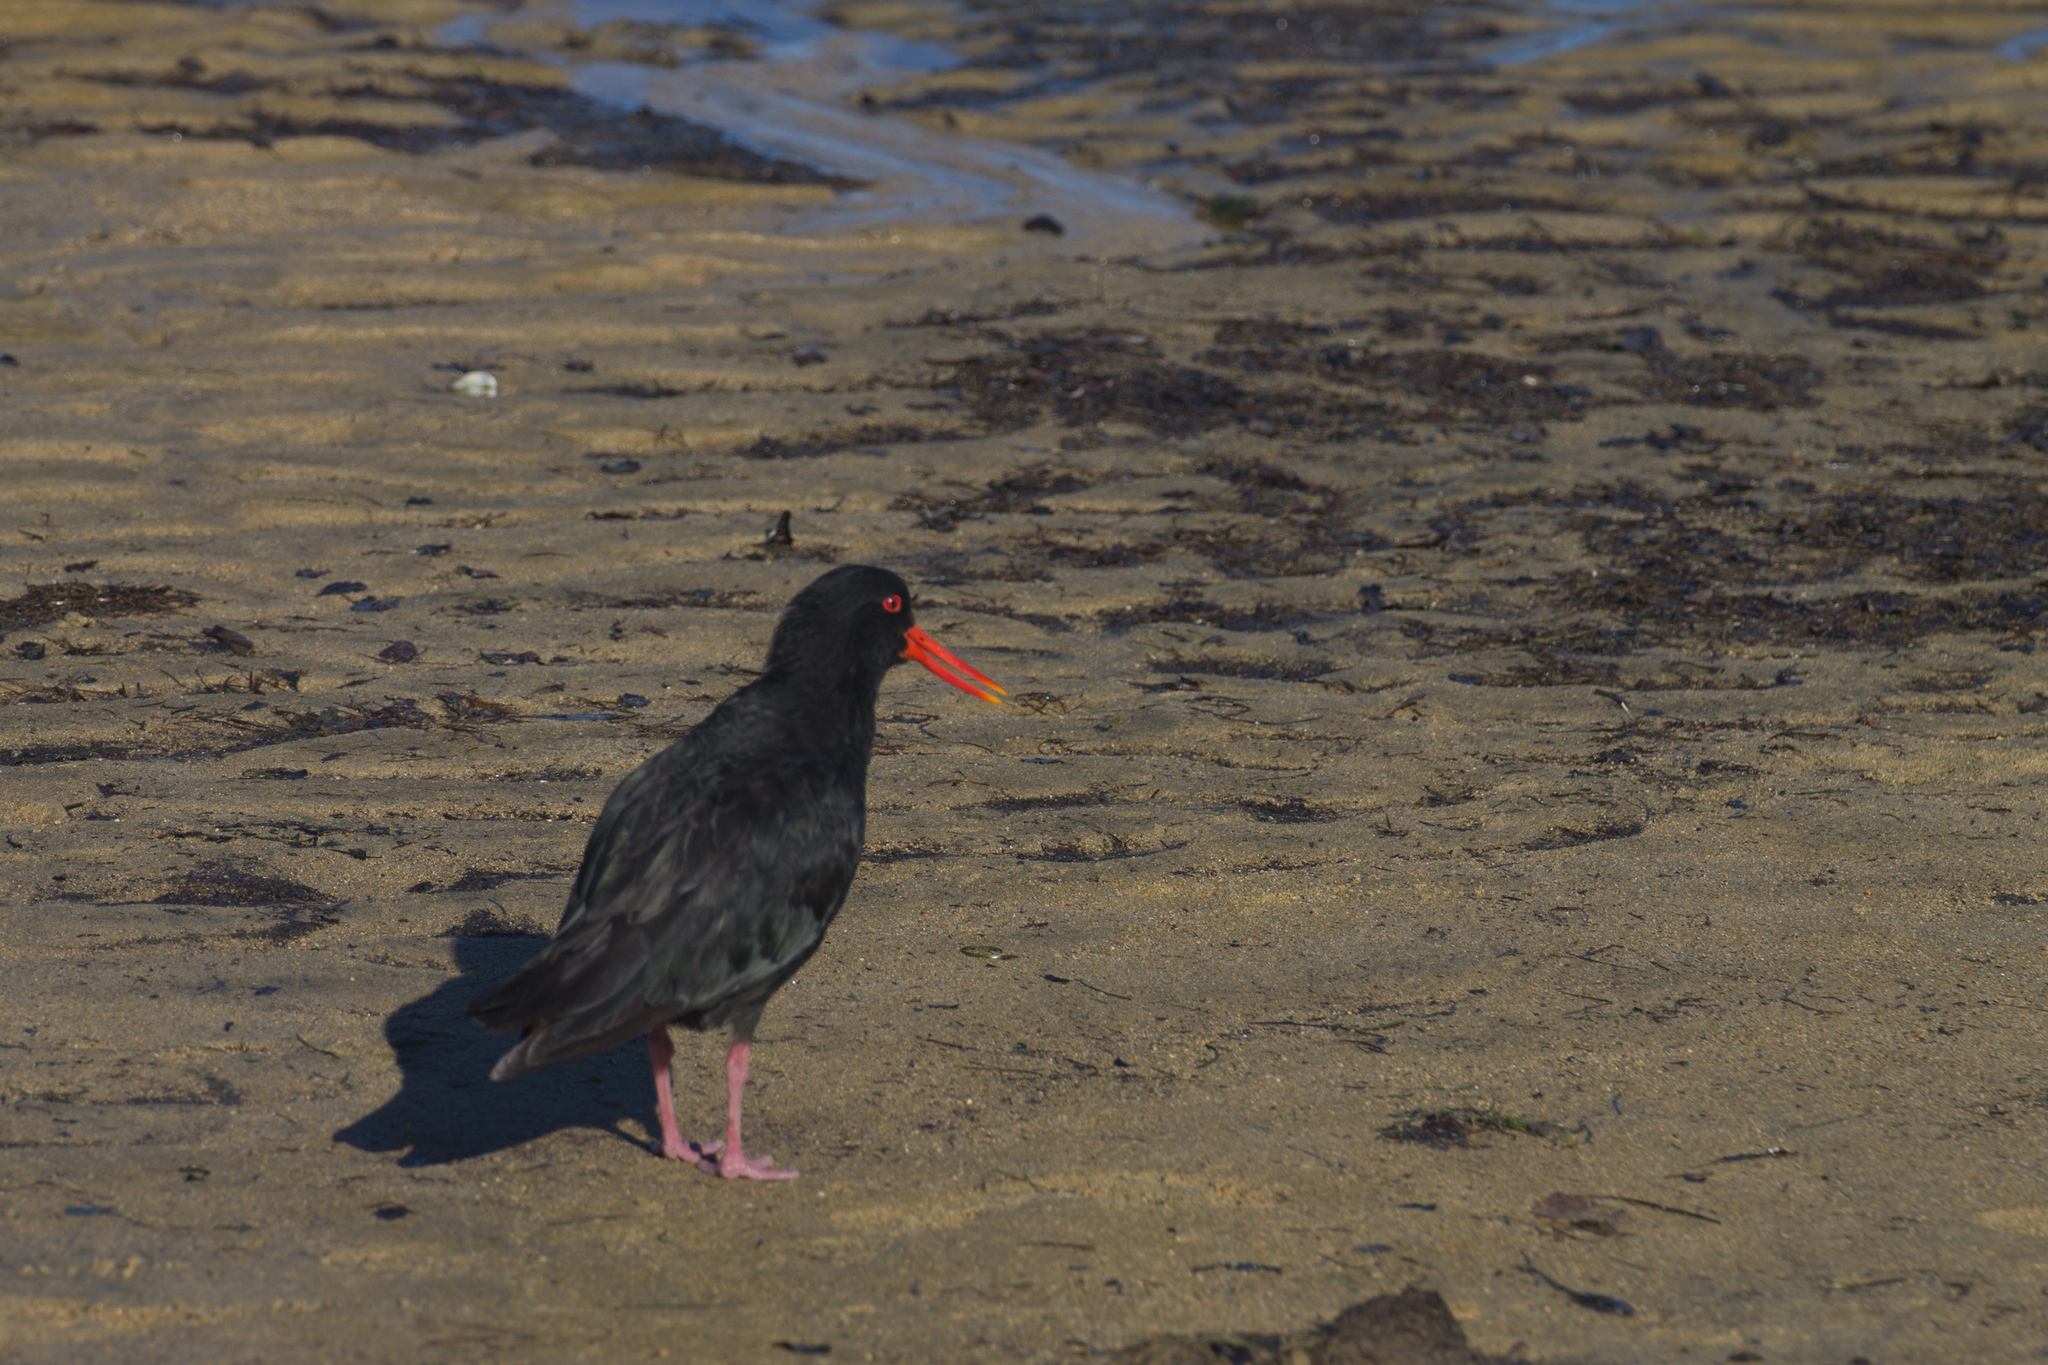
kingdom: Animalia
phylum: Chordata
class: Aves
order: Charadriiformes
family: Haematopodidae
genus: Haematopus
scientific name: Haematopus unicolor
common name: Variable oystercatcher
